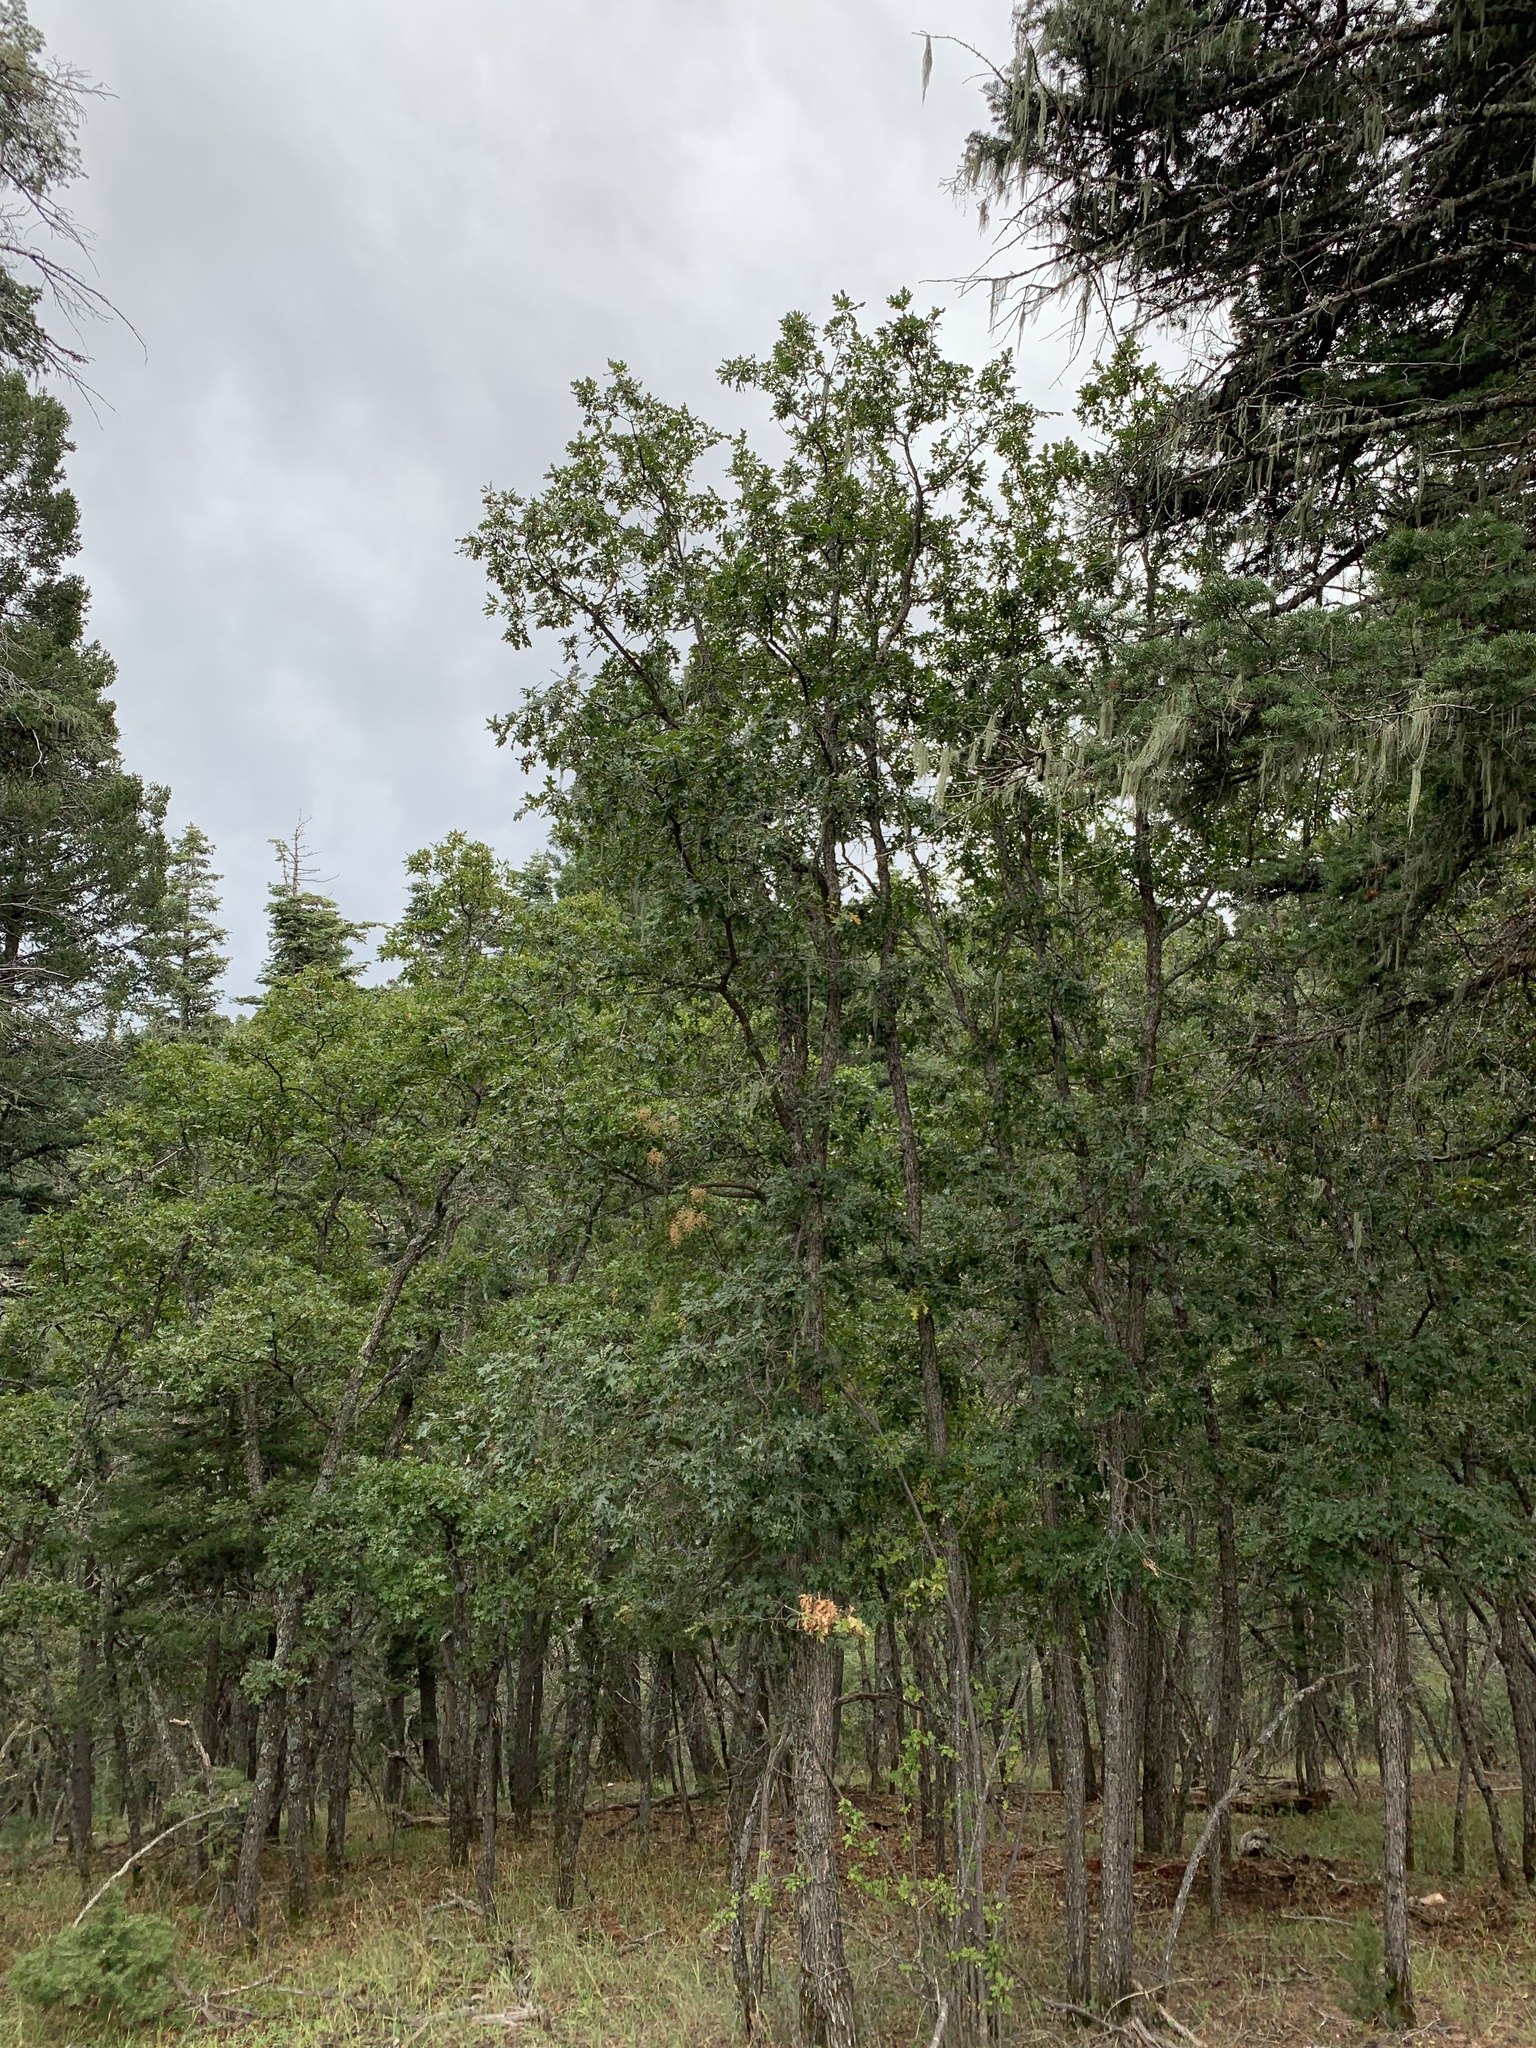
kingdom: Plantae
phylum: Tracheophyta
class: Magnoliopsida
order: Fagales
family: Fagaceae
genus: Quercus
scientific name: Quercus gambelii
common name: Gambel oak
